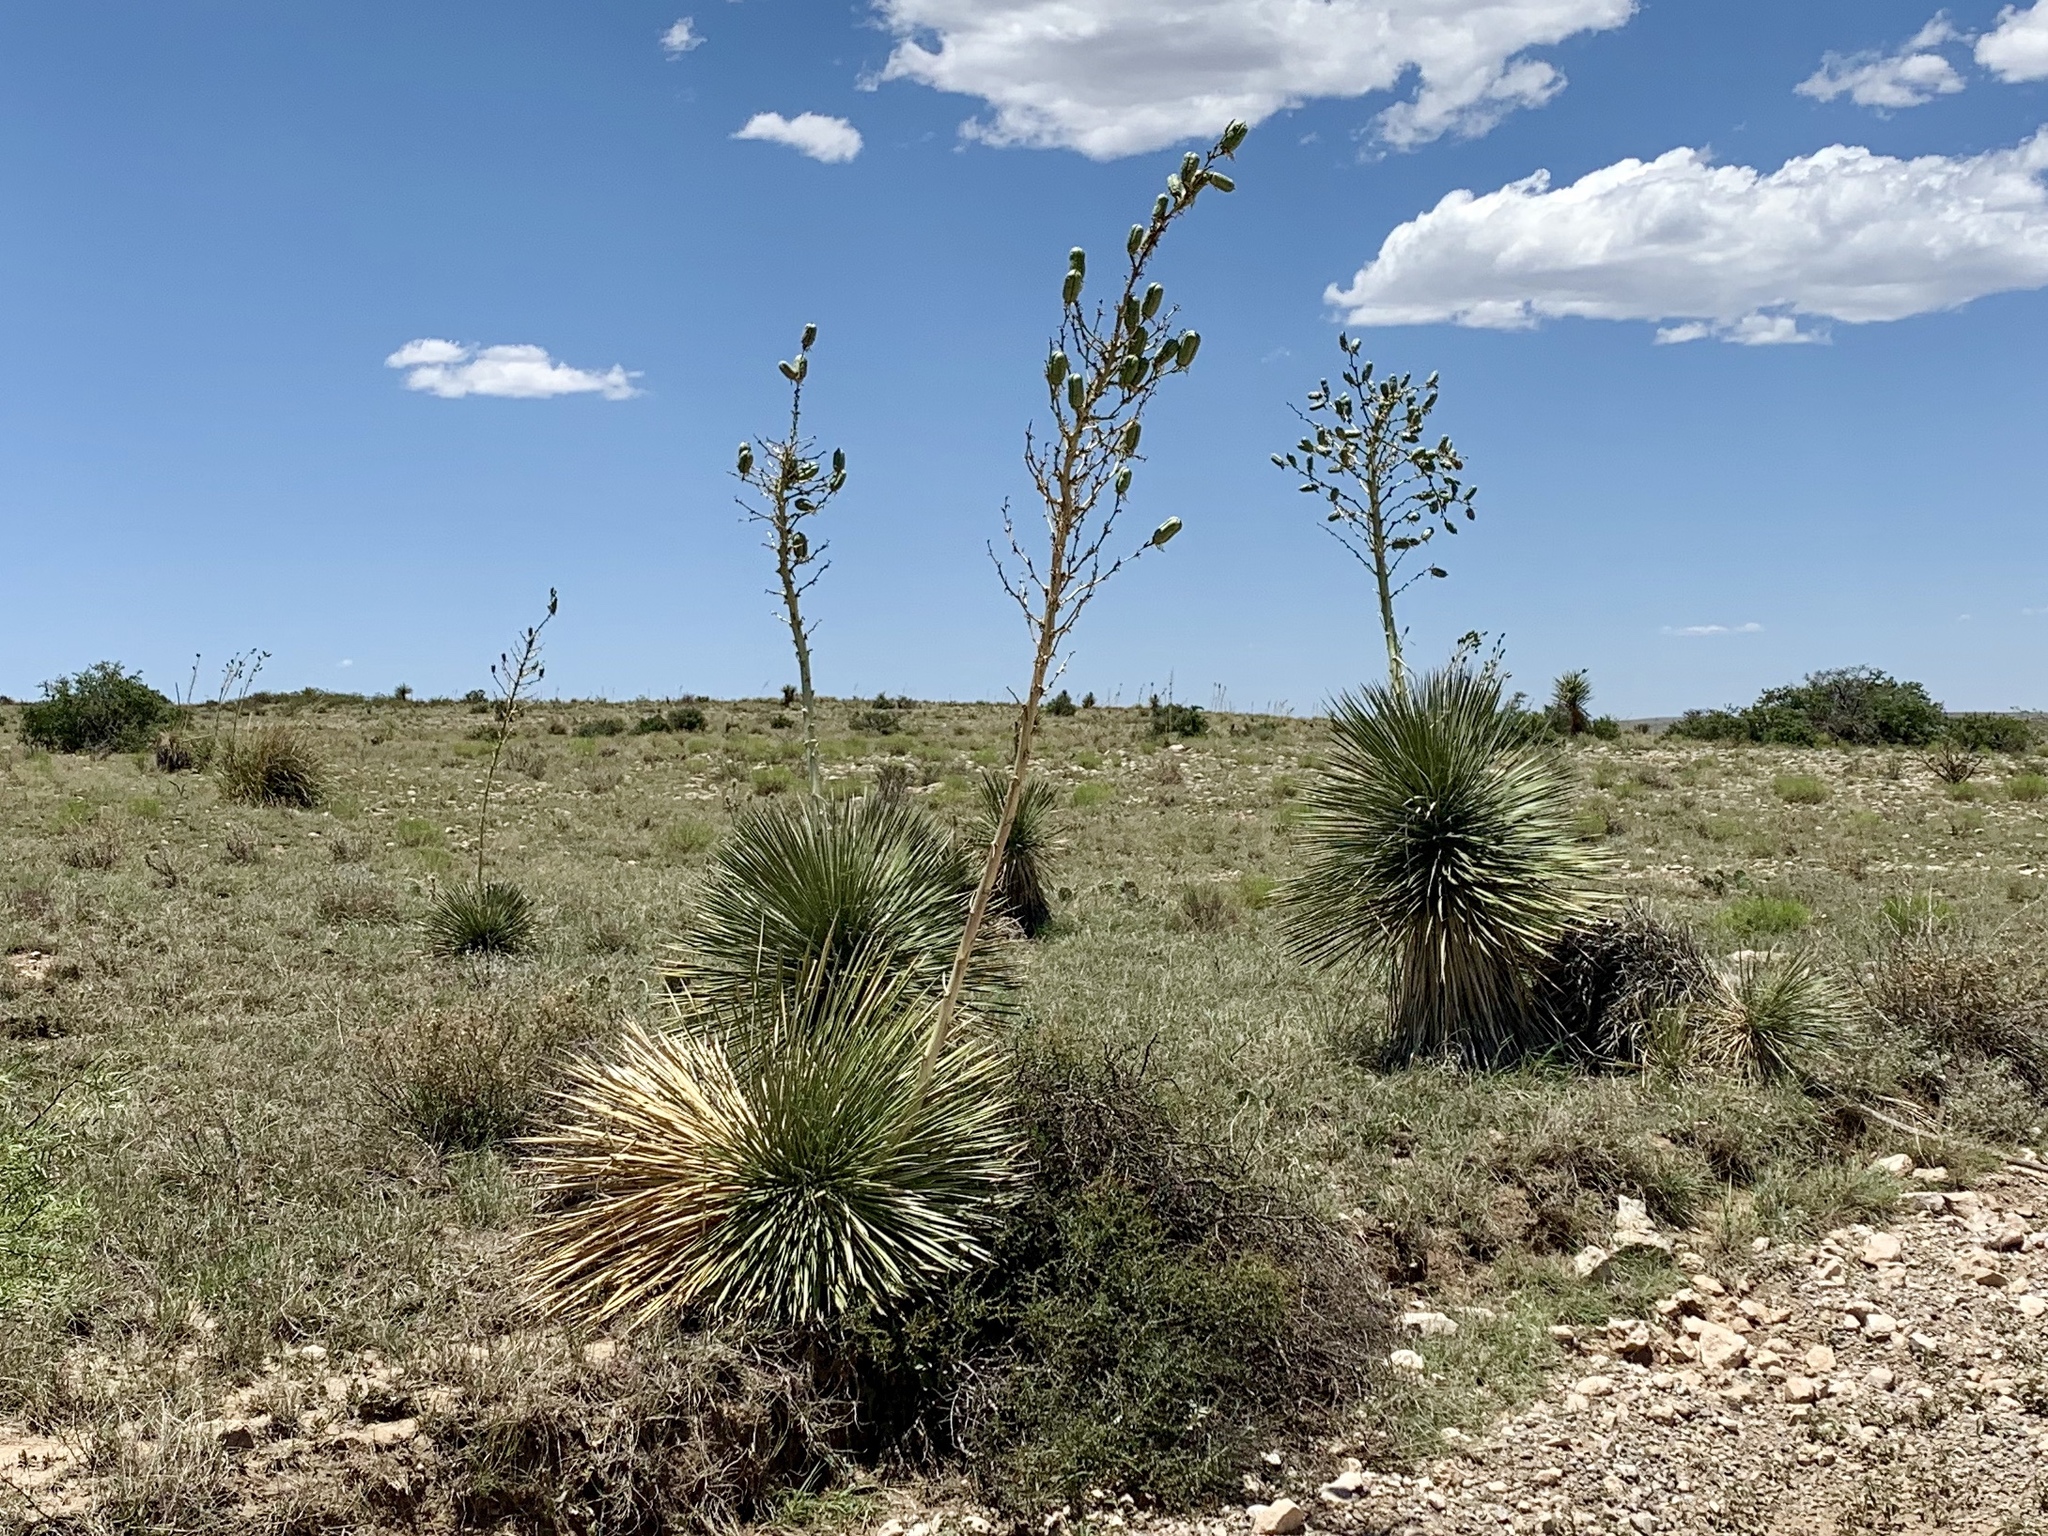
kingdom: Plantae
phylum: Tracheophyta
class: Liliopsida
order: Asparagales
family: Asparagaceae
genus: Yucca
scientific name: Yucca elata
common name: Palmella
